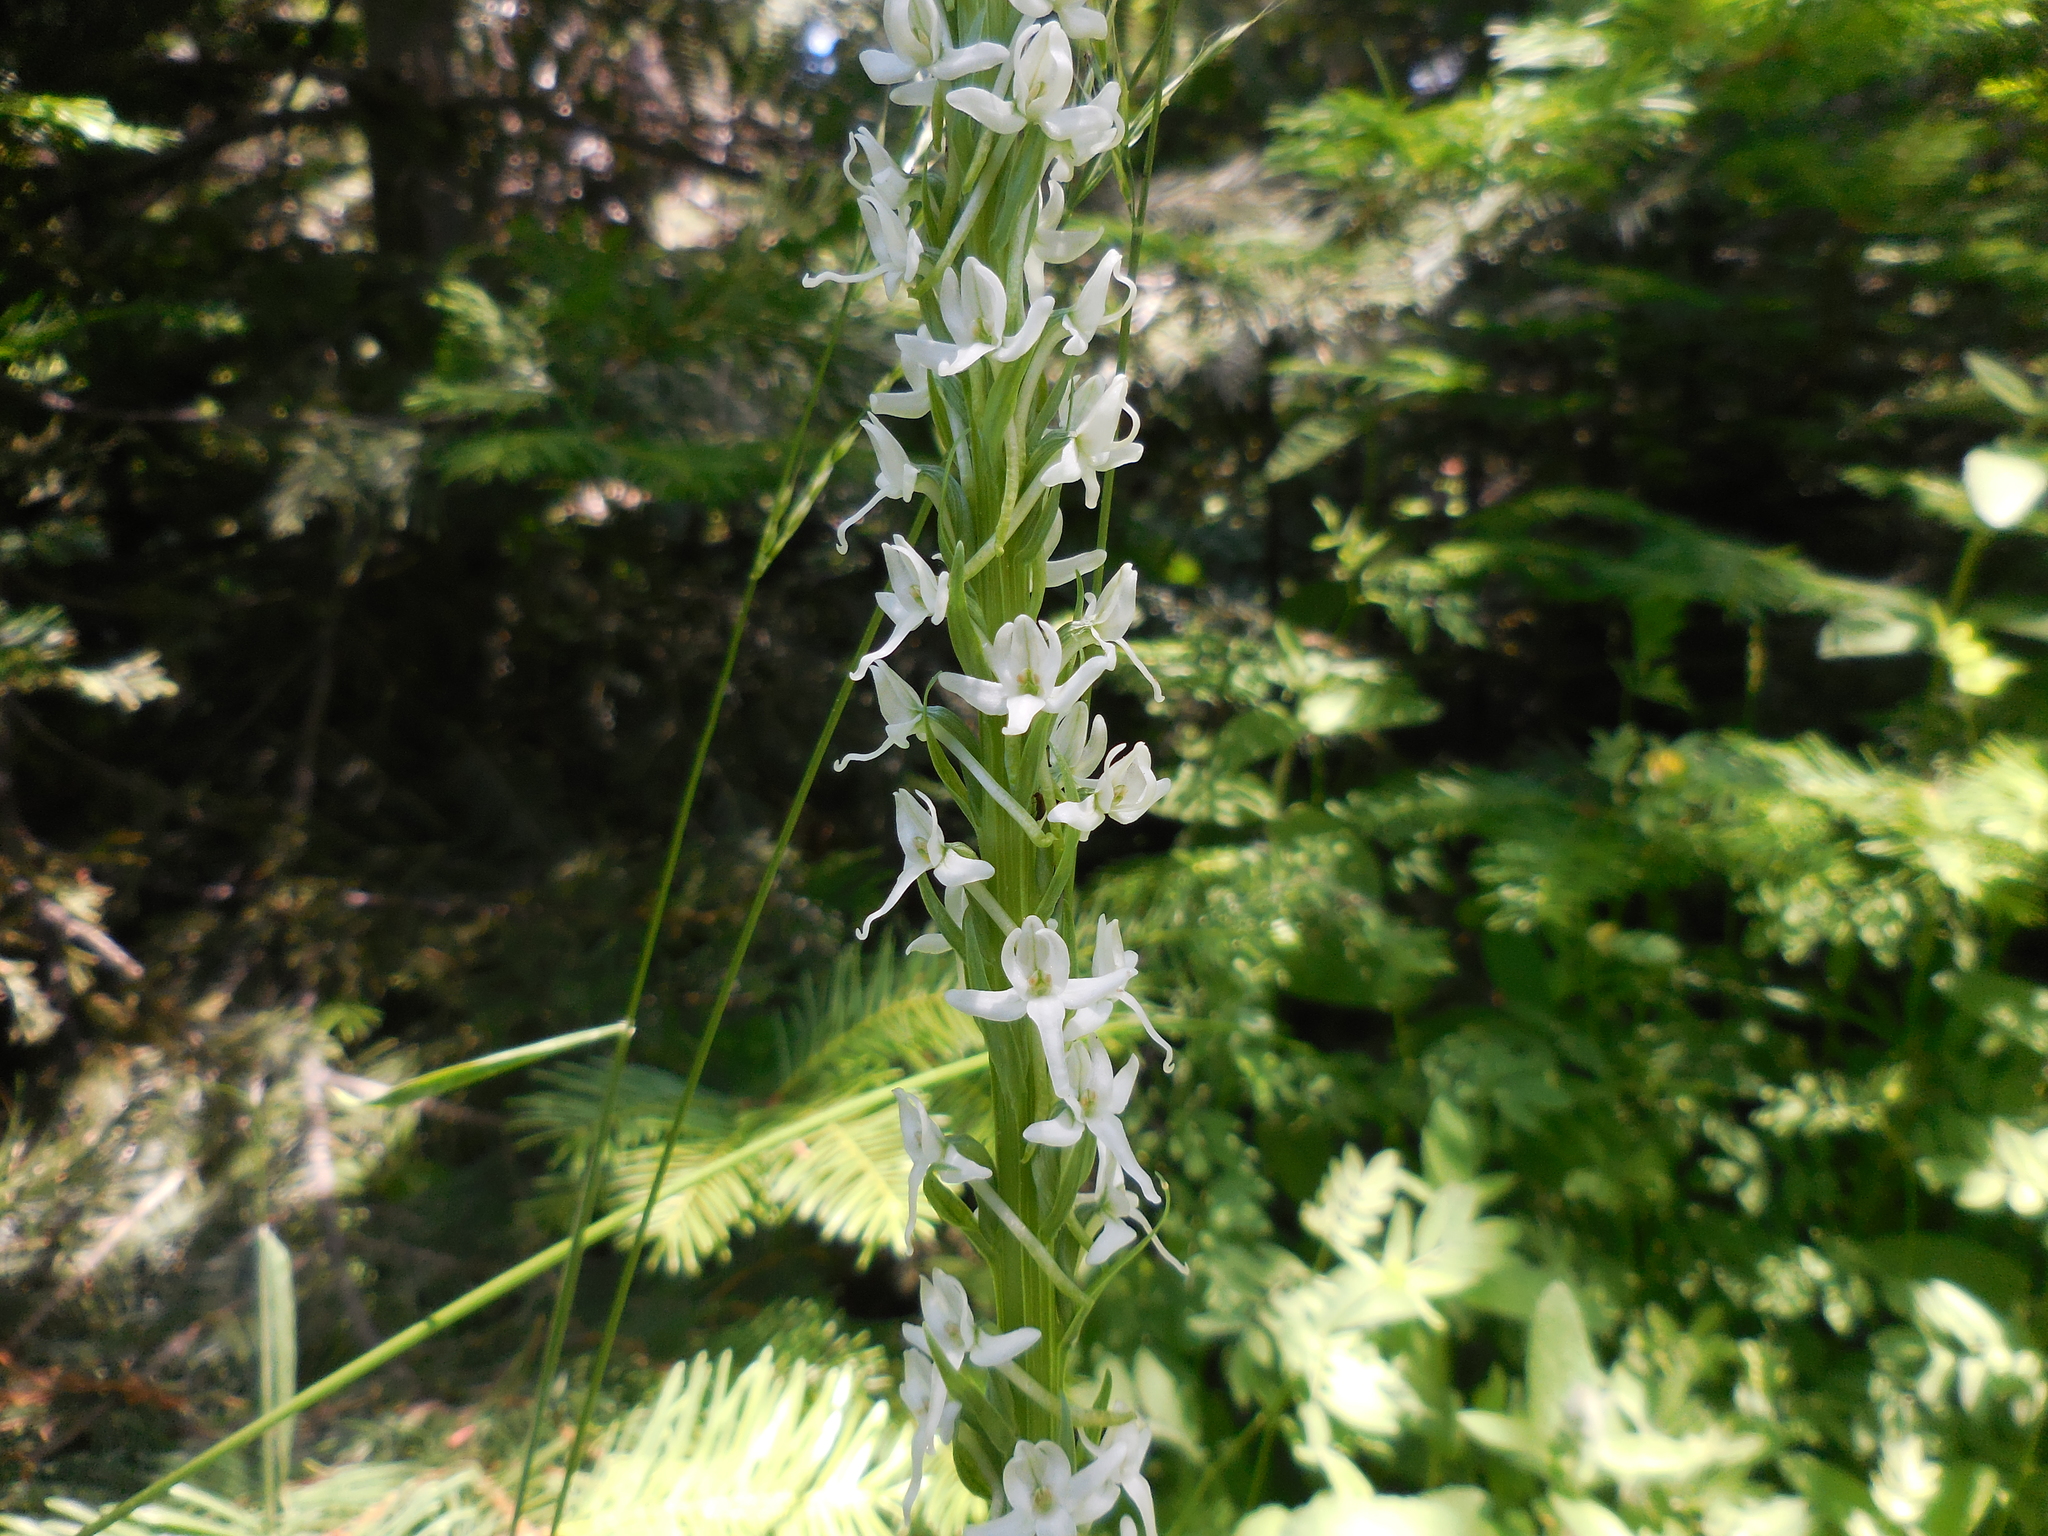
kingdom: Plantae
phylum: Tracheophyta
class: Liliopsida
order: Asparagales
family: Orchidaceae
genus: Platanthera
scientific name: Platanthera dilatata
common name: Bog candles
